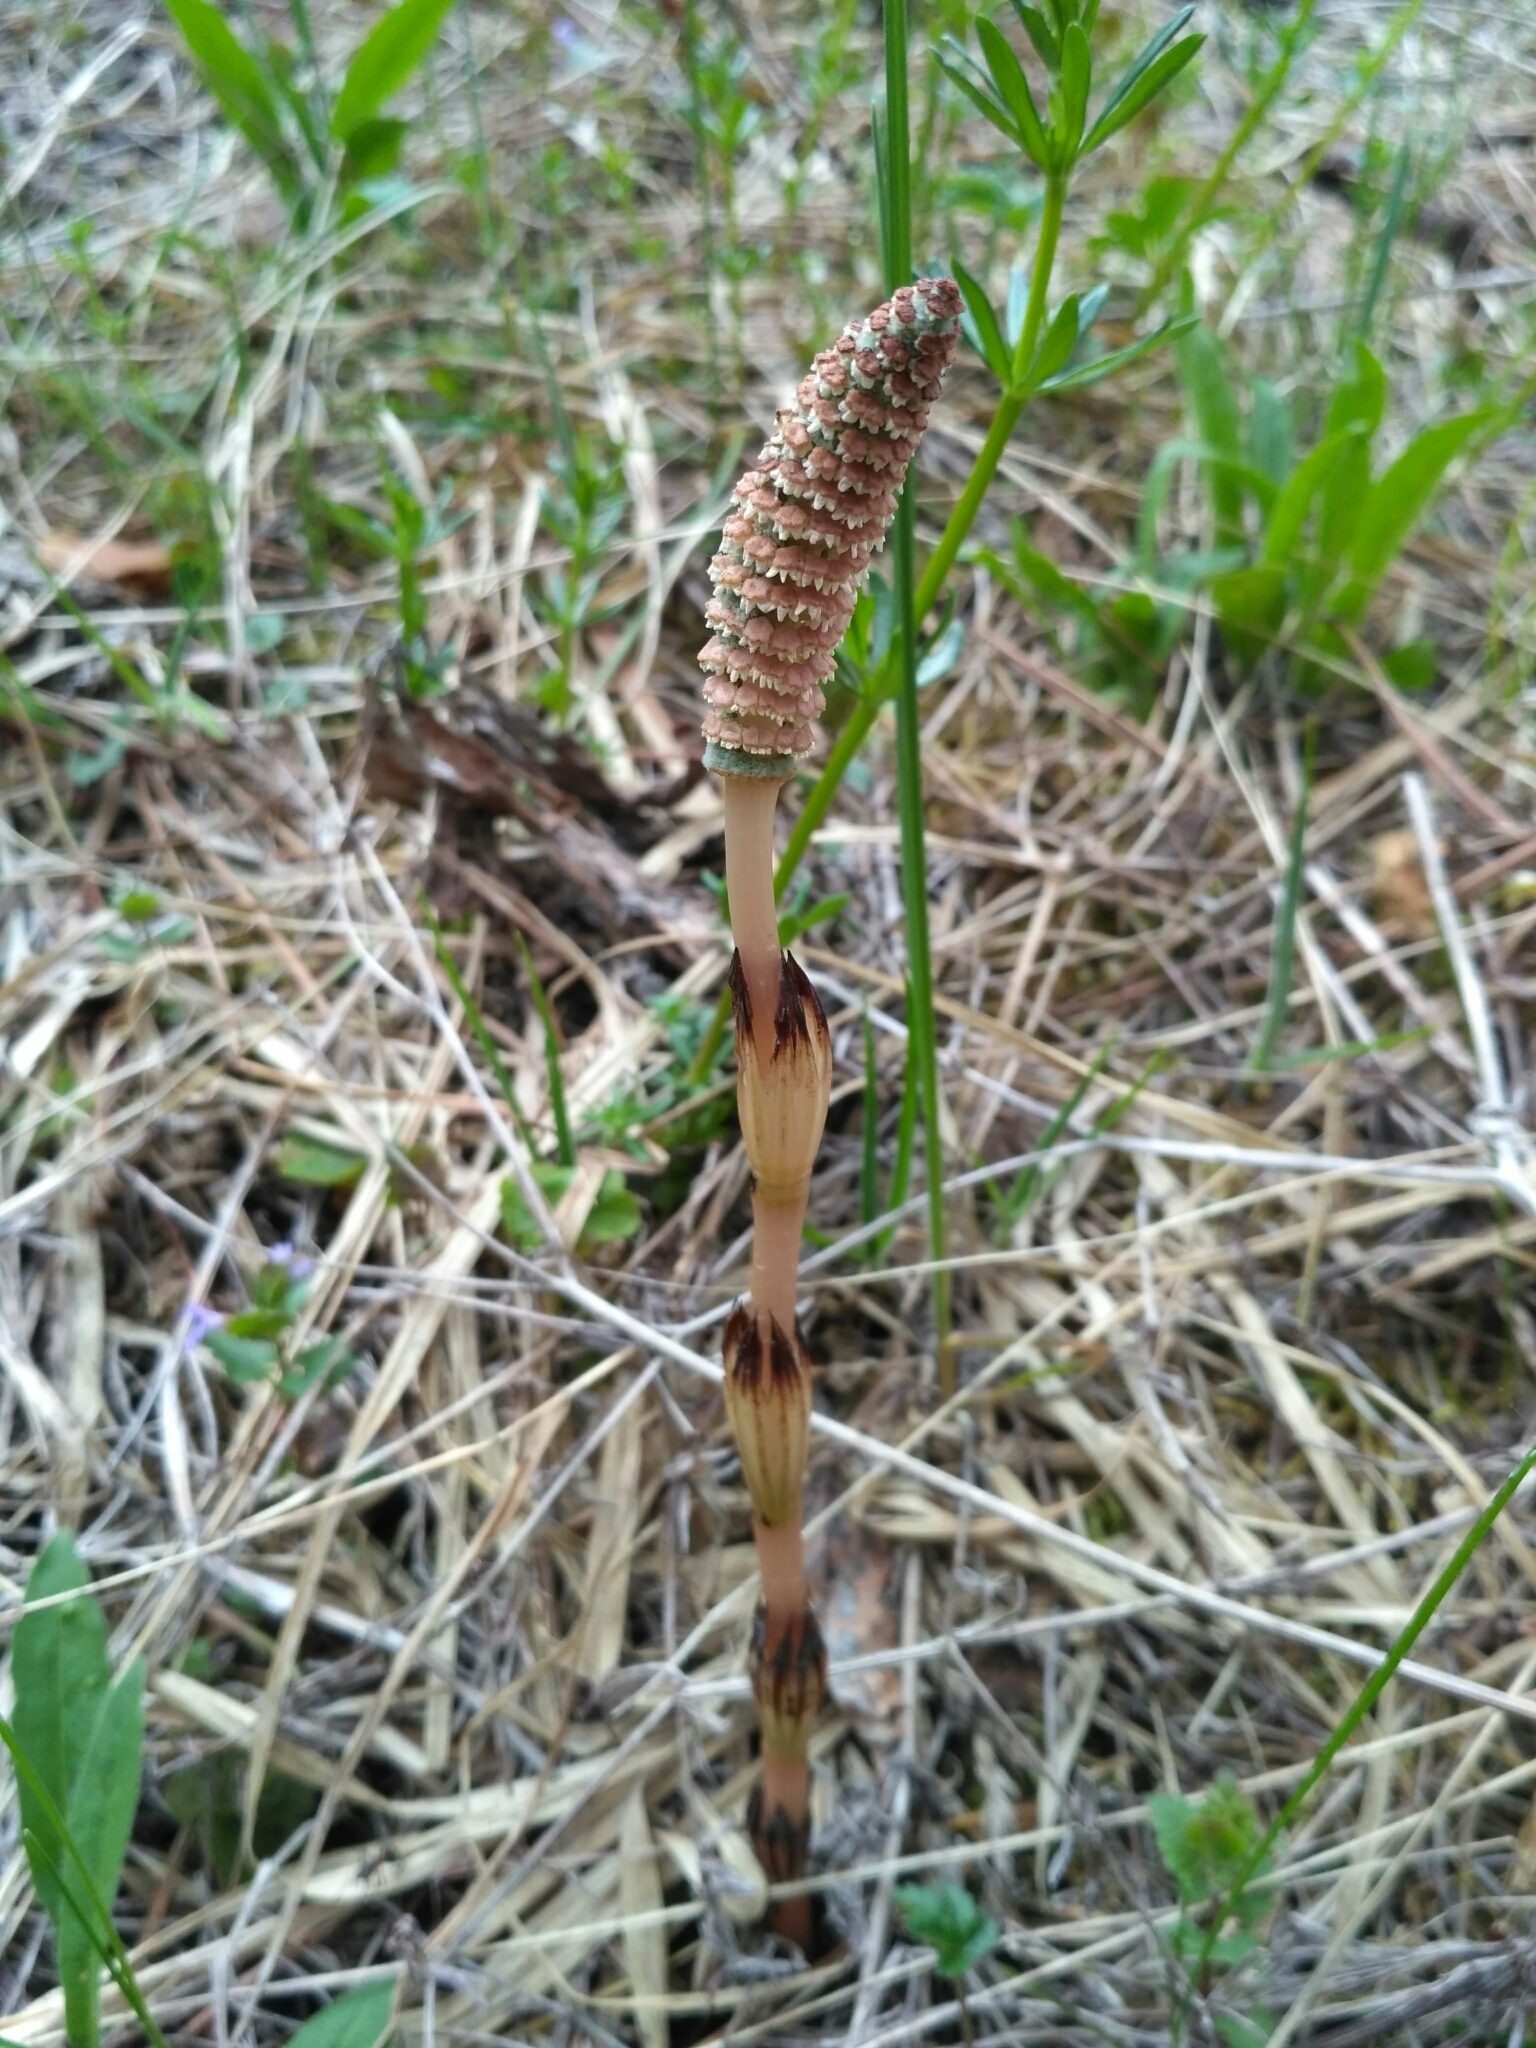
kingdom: Plantae
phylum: Tracheophyta
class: Polypodiopsida
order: Equisetales
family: Equisetaceae
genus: Equisetum
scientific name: Equisetum arvense
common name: Field horsetail
